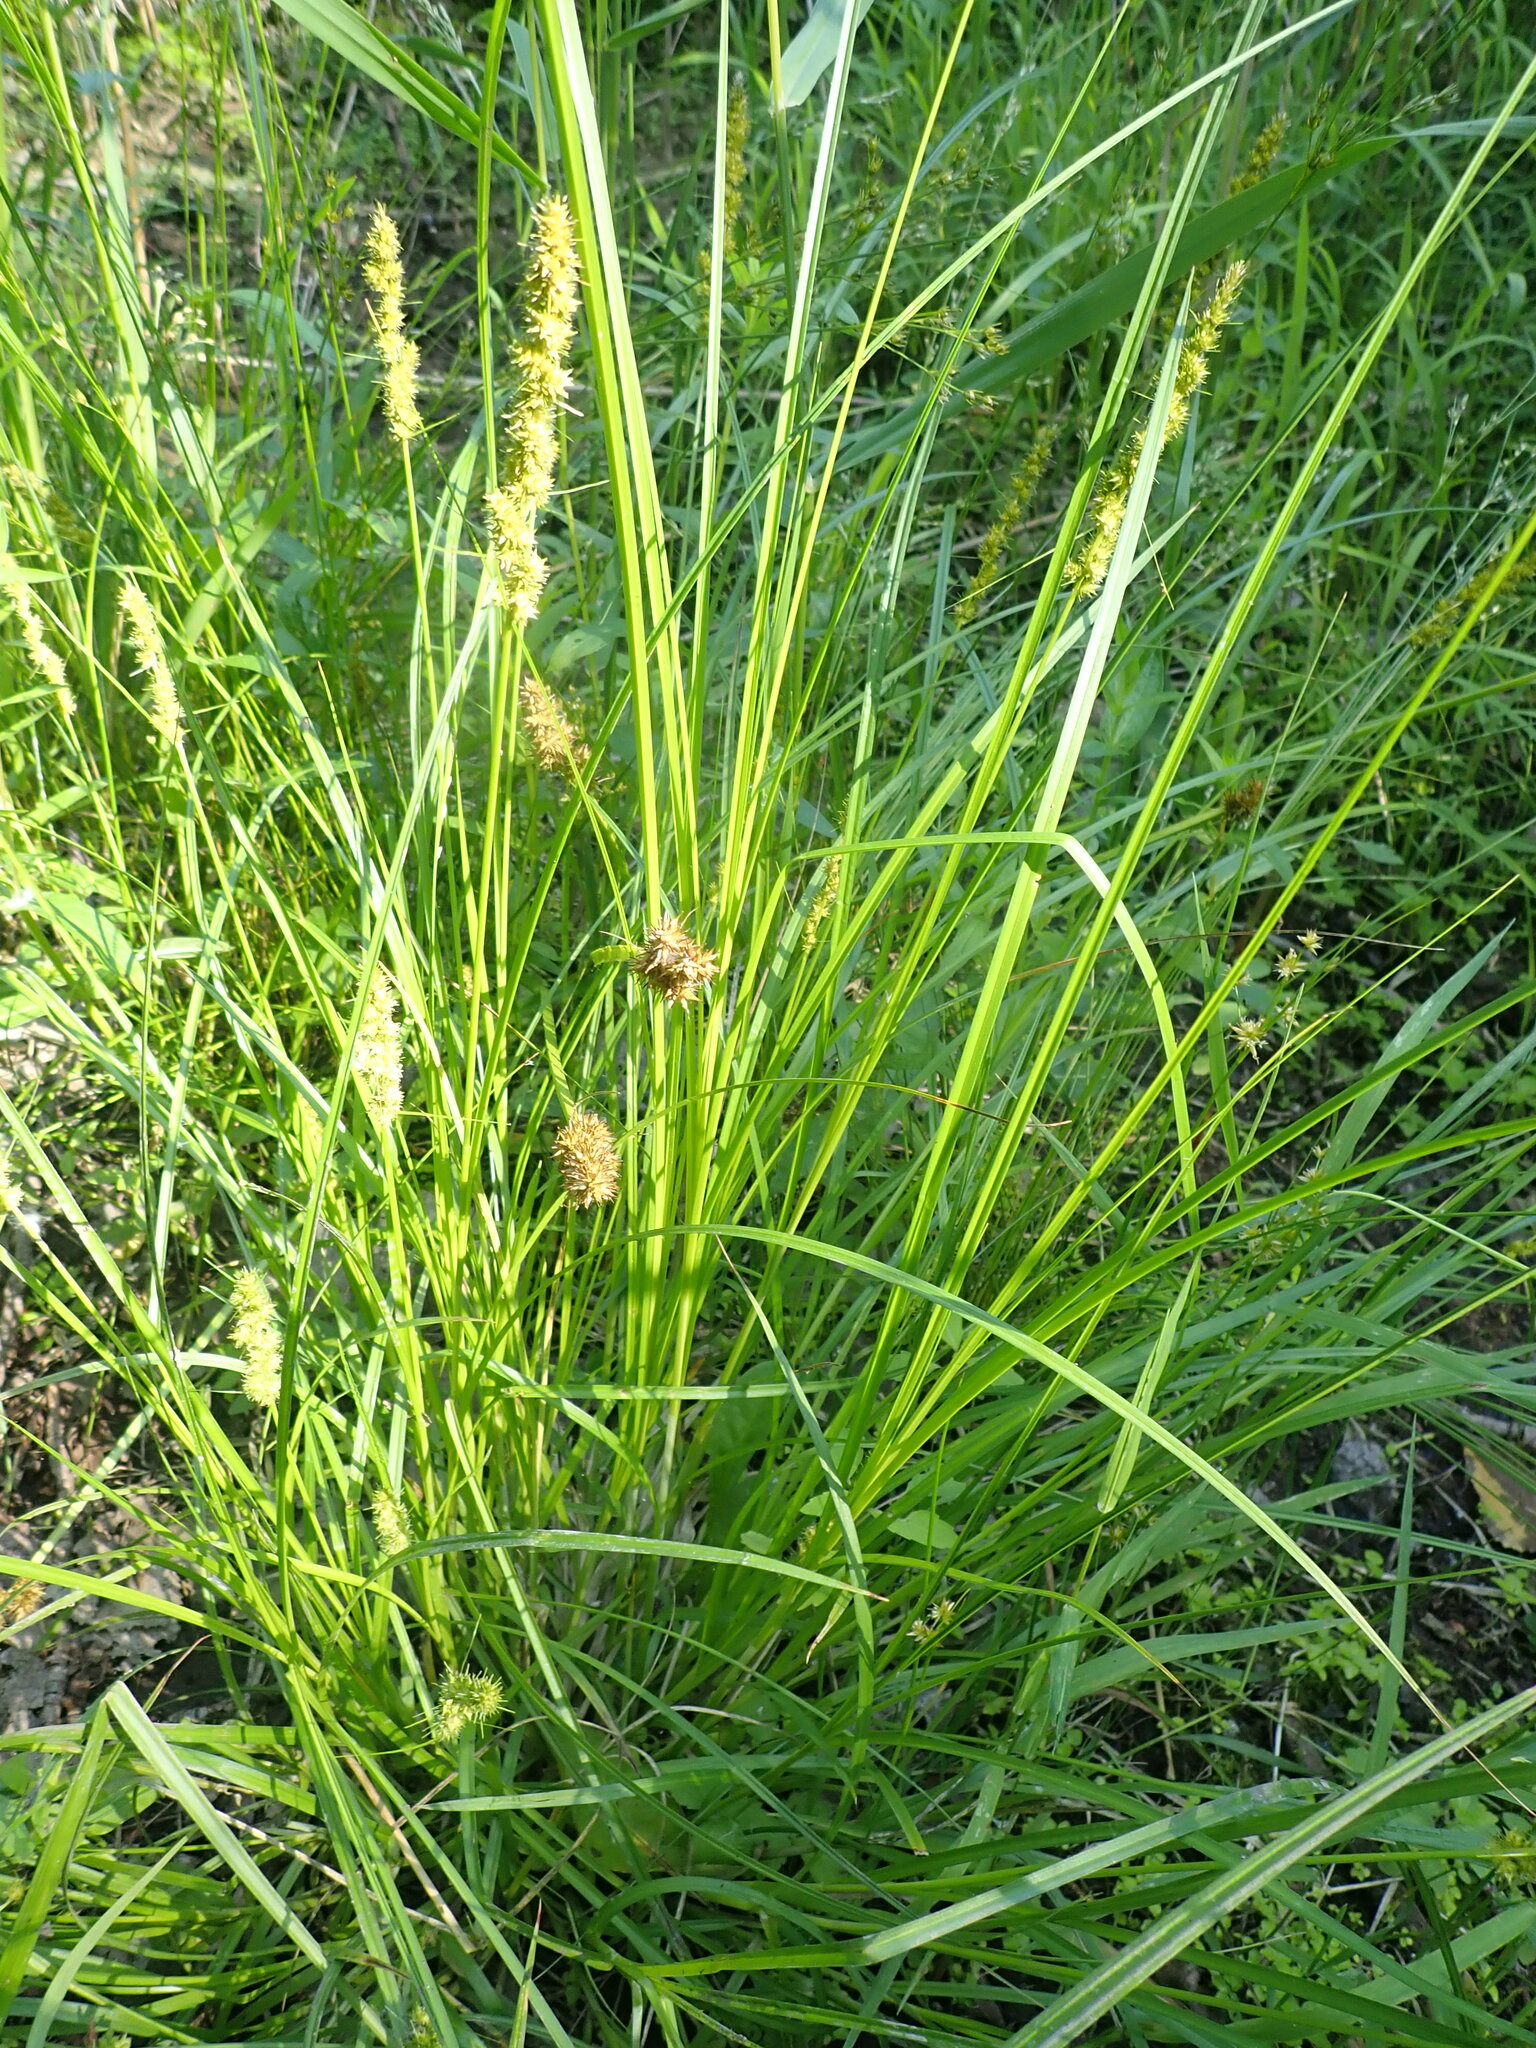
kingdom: Plantae
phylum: Tracheophyta
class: Liliopsida
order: Poales
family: Cyperaceae
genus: Carex
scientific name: Carex vulpinoidea
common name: American fox-sedge
